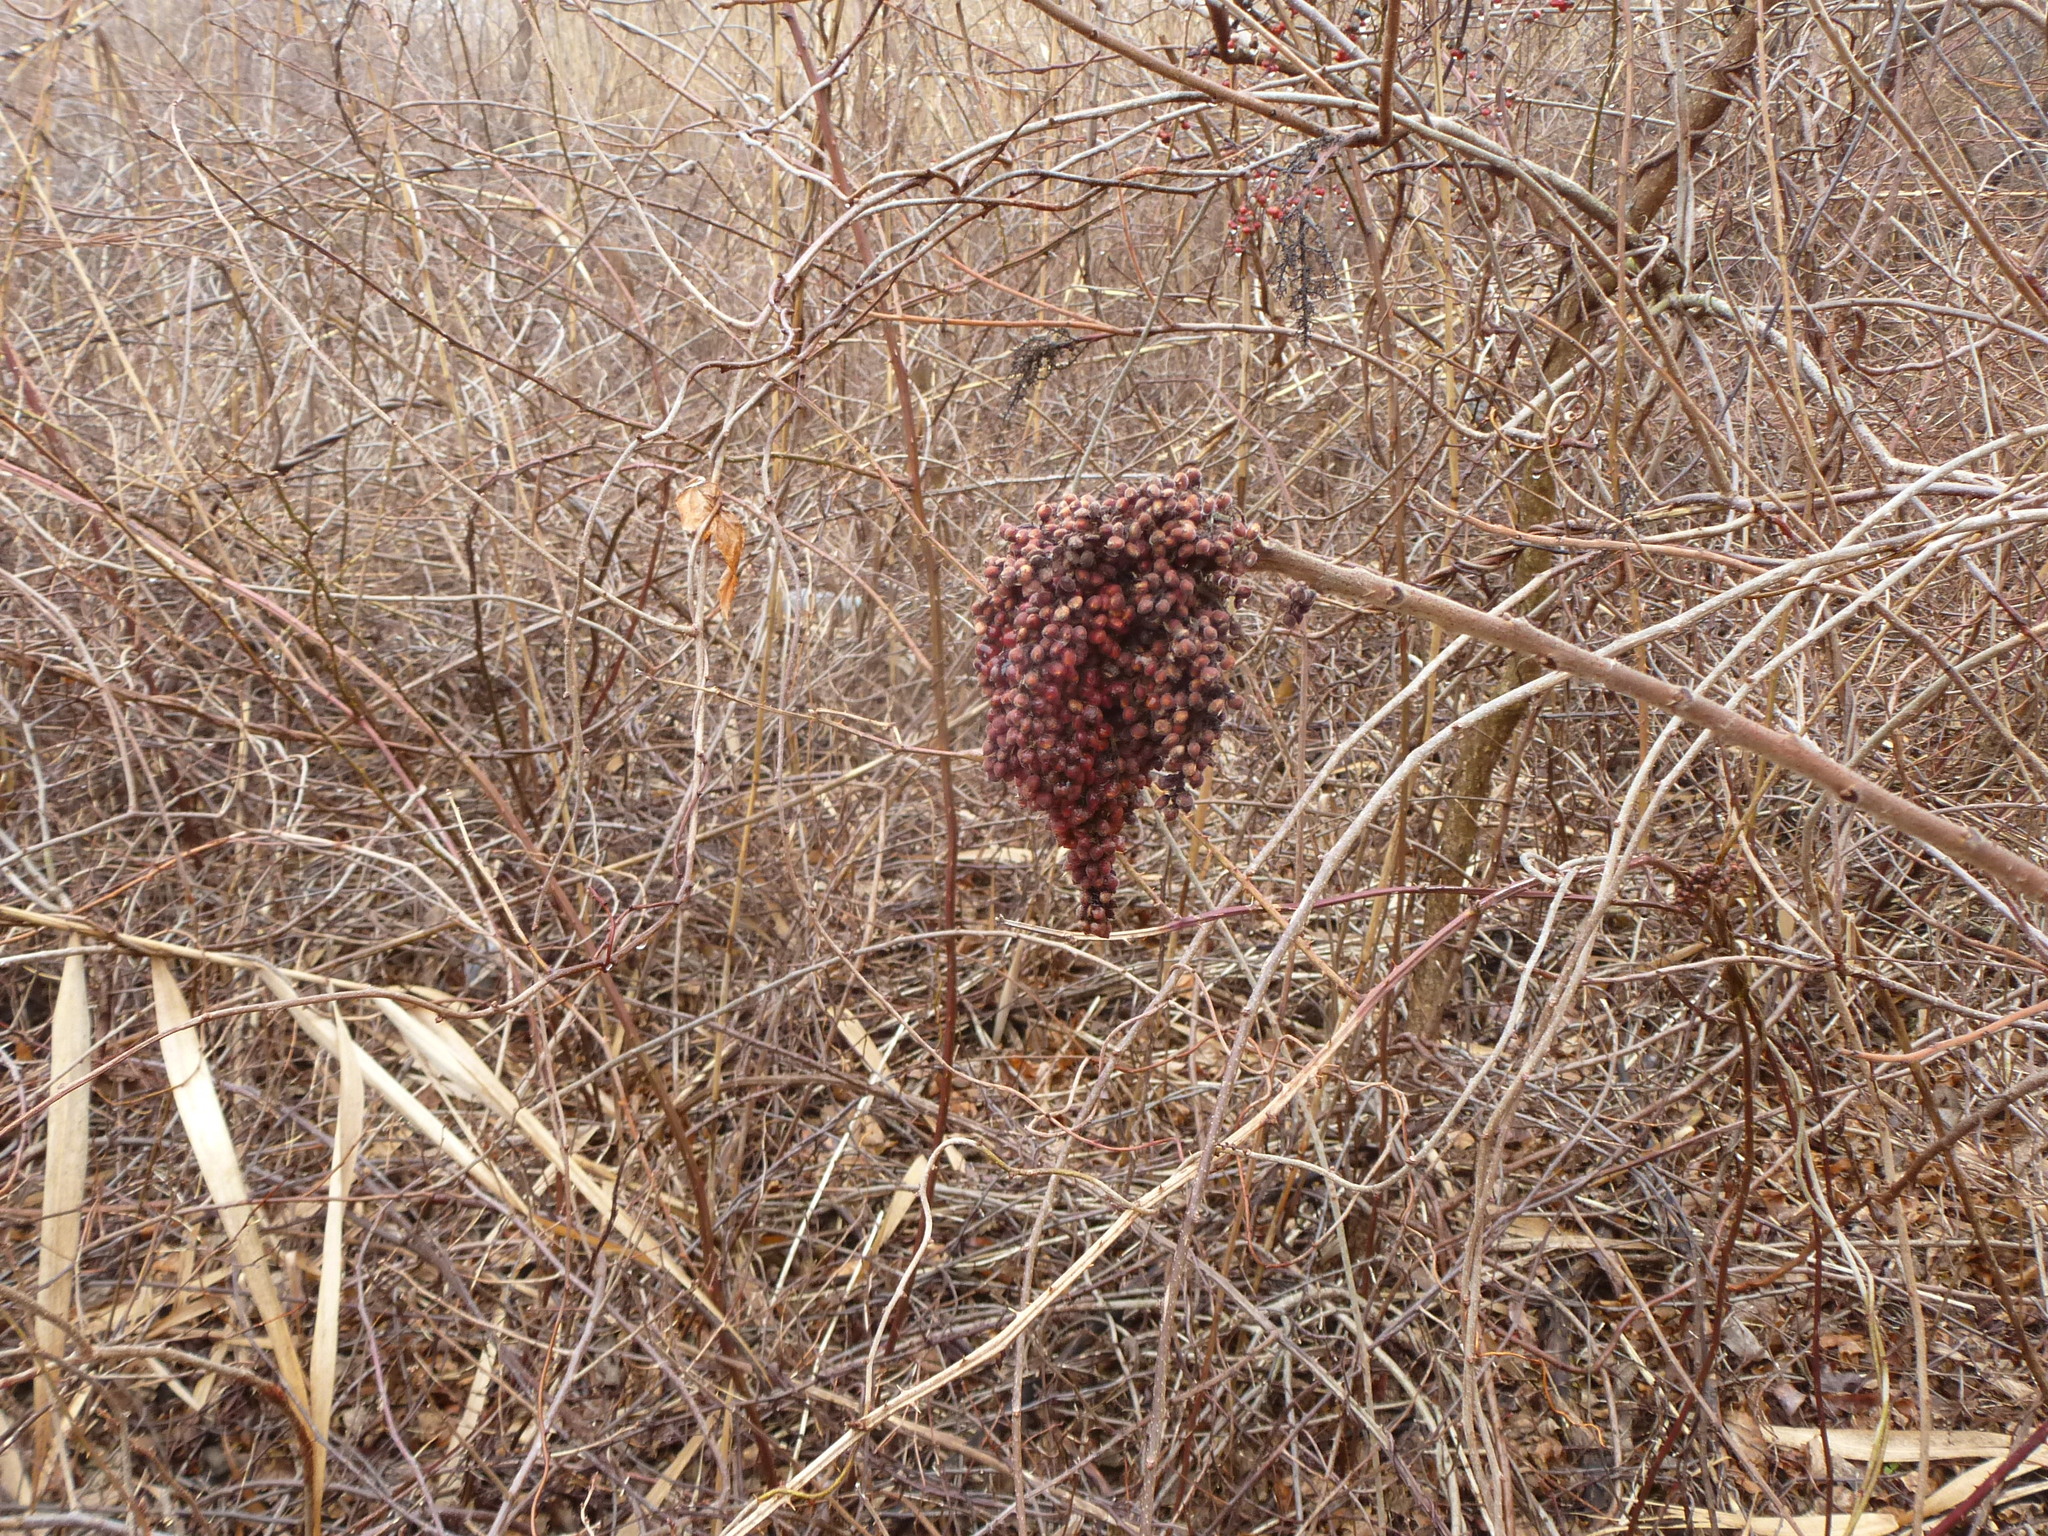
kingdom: Plantae
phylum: Tracheophyta
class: Magnoliopsida
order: Sapindales
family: Anacardiaceae
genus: Rhus
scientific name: Rhus copallina
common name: Shining sumac
